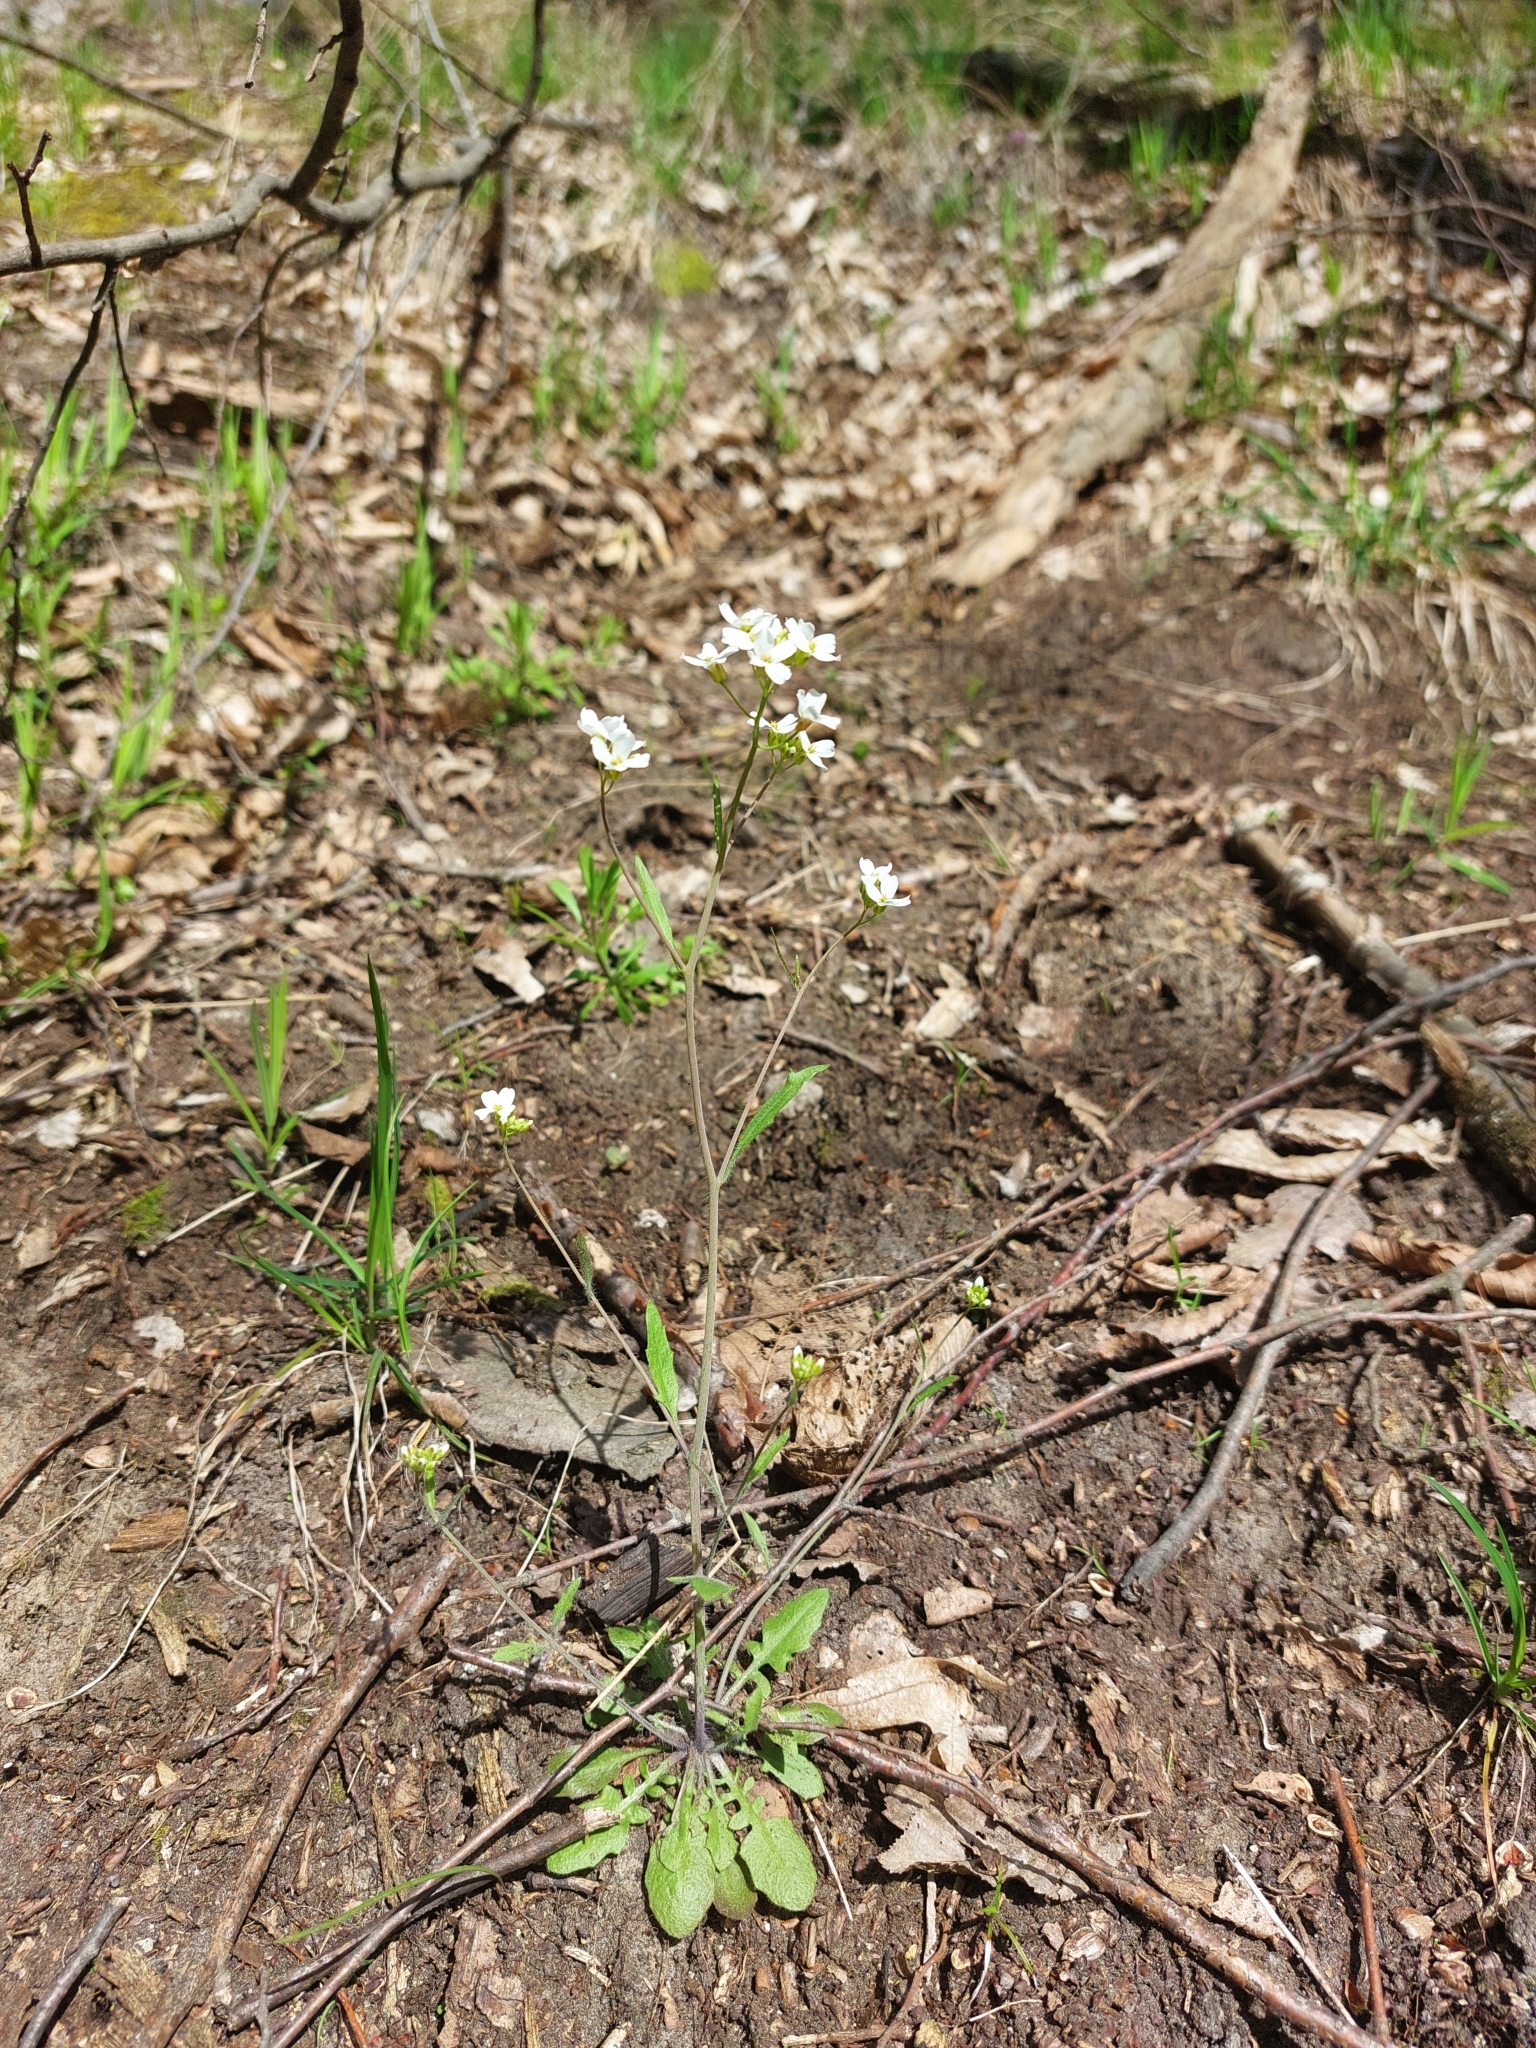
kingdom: Plantae
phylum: Tracheophyta
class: Magnoliopsida
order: Brassicales
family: Brassicaceae
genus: Arabidopsis
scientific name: Arabidopsis arenosa
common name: Sand rock-cress
